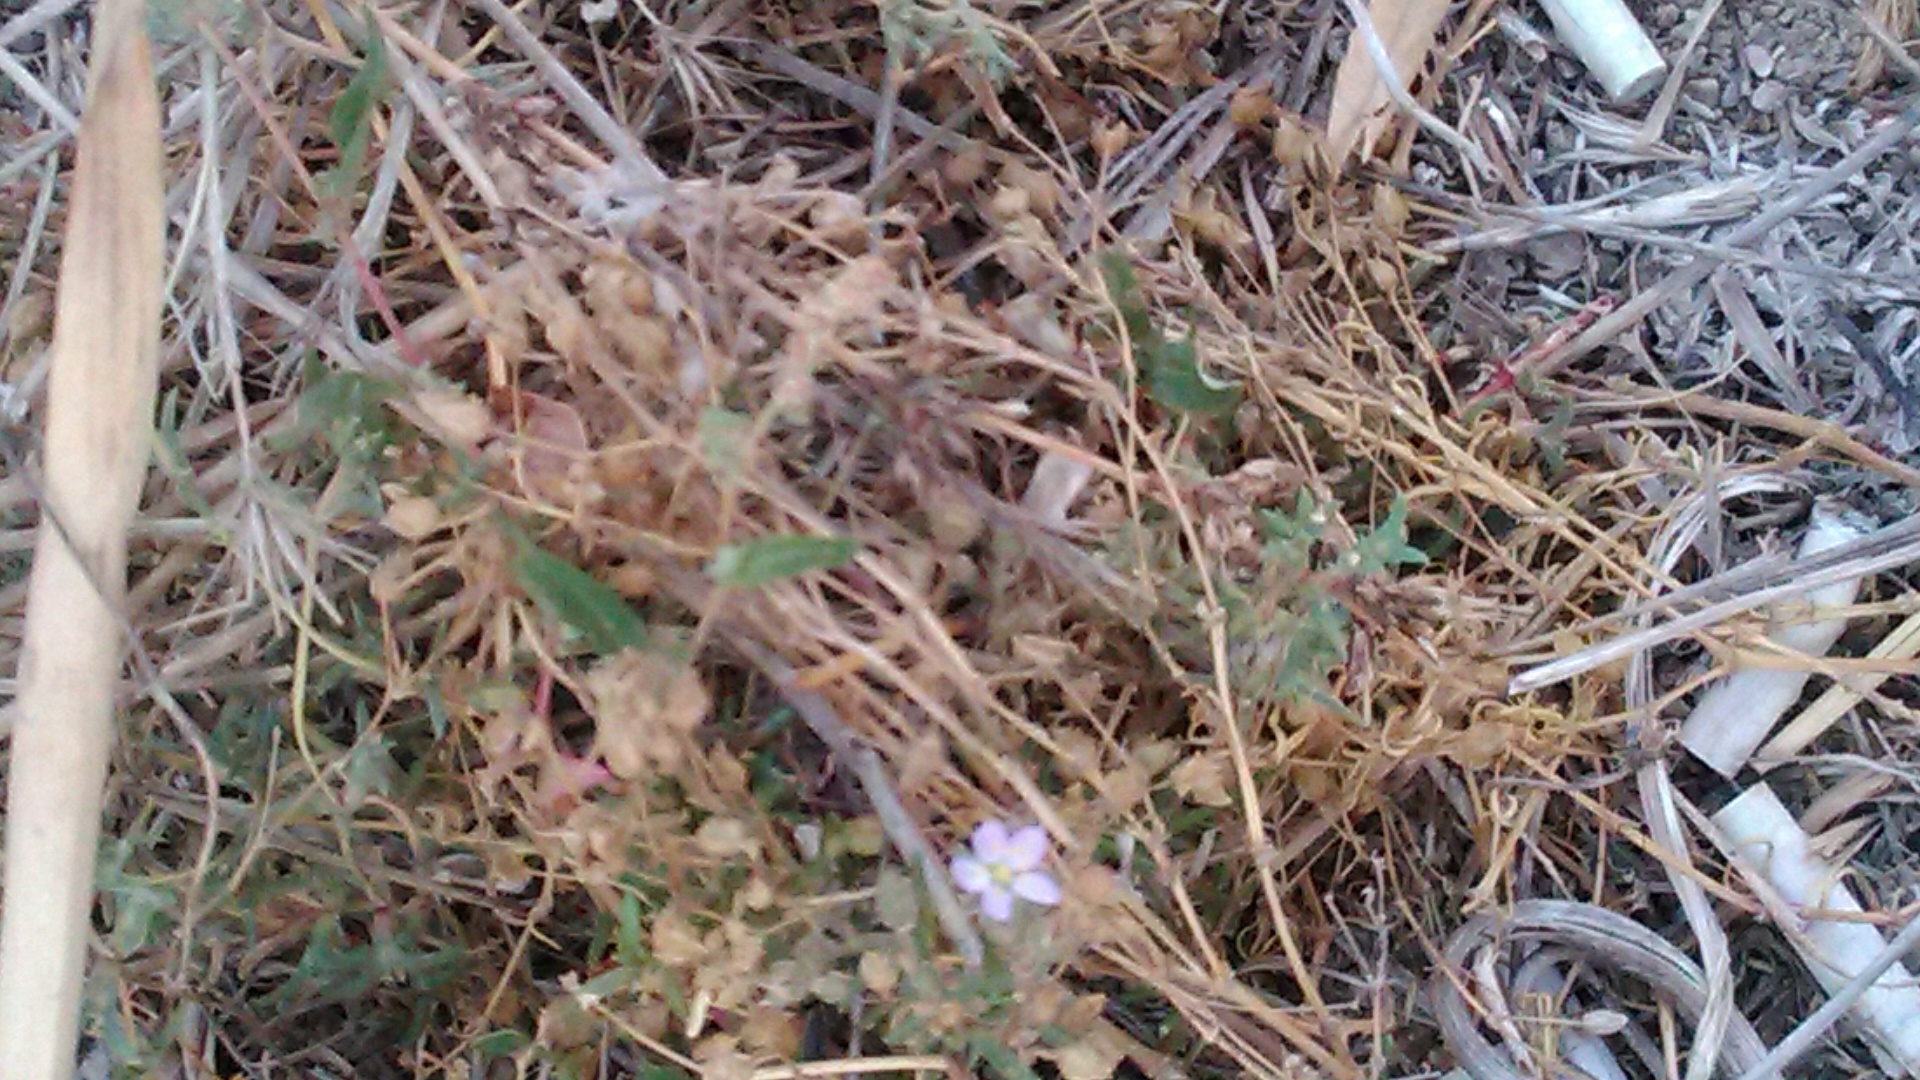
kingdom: Plantae
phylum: Tracheophyta
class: Magnoliopsida
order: Caryophyllales
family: Caryophyllaceae
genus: Spergularia
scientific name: Spergularia media
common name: Greater sea-spurrey
